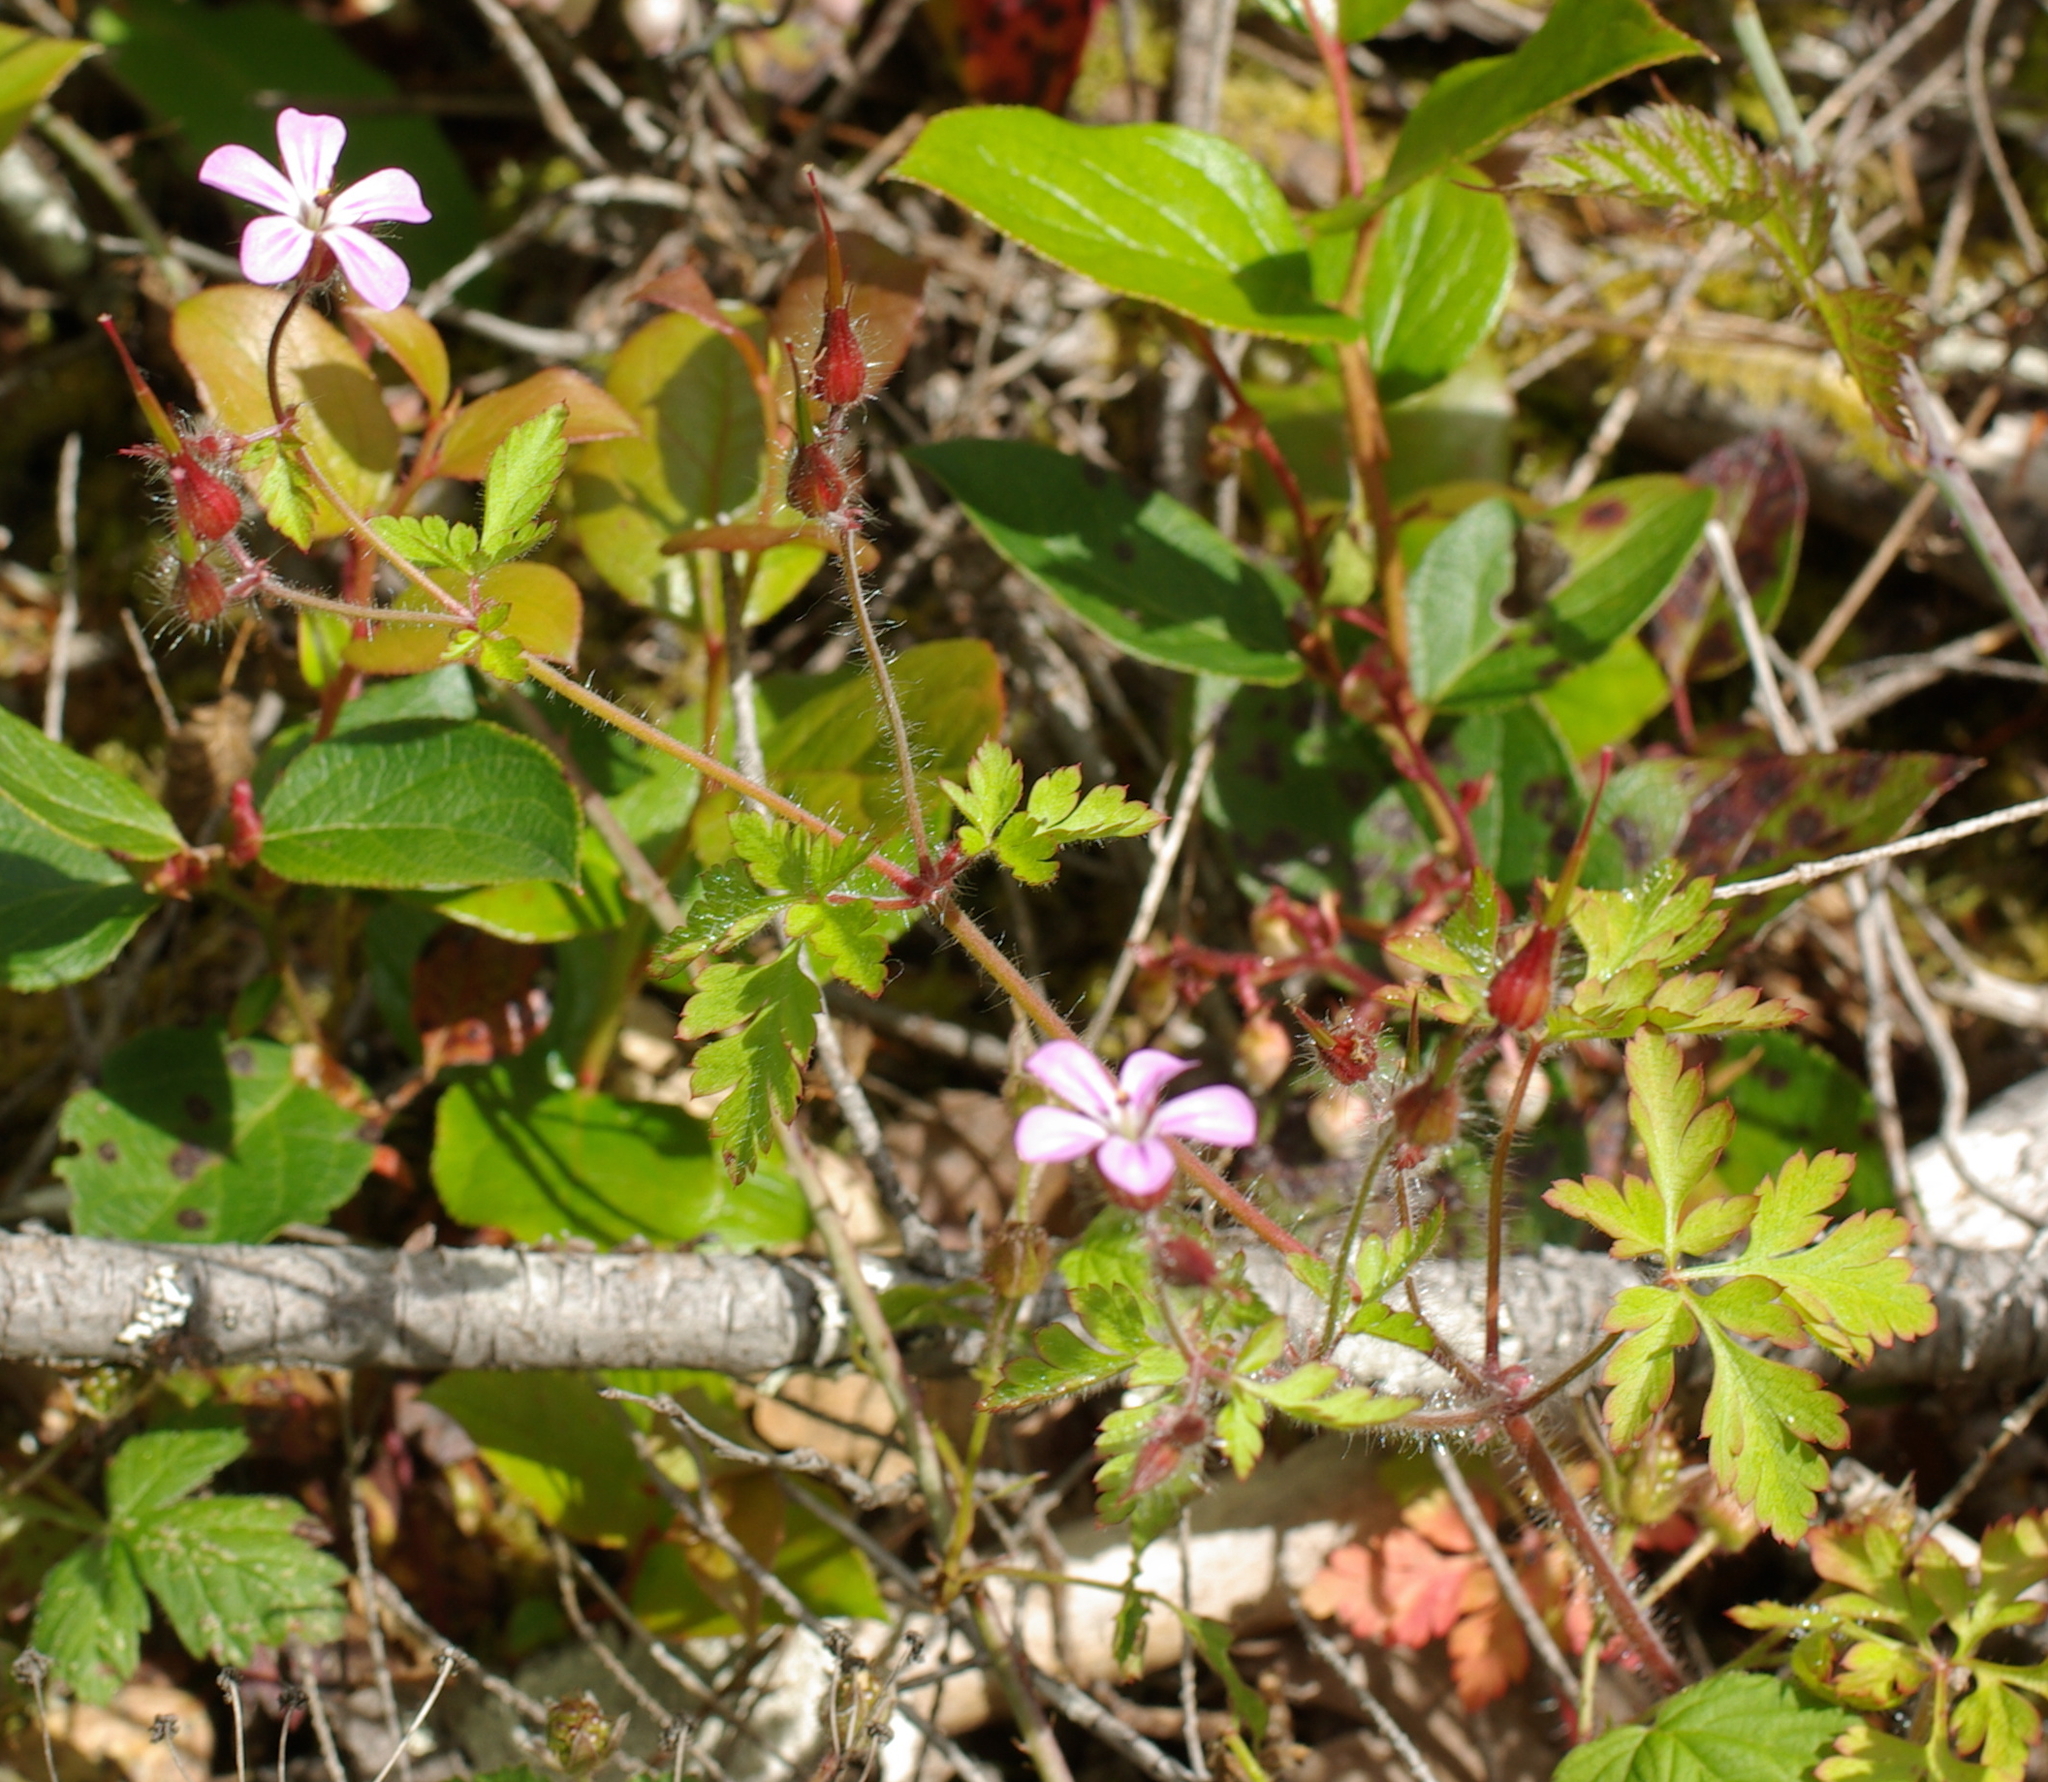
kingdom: Plantae
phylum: Tracheophyta
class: Magnoliopsida
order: Geraniales
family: Geraniaceae
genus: Geranium
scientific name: Geranium robertianum
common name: Herb-robert
